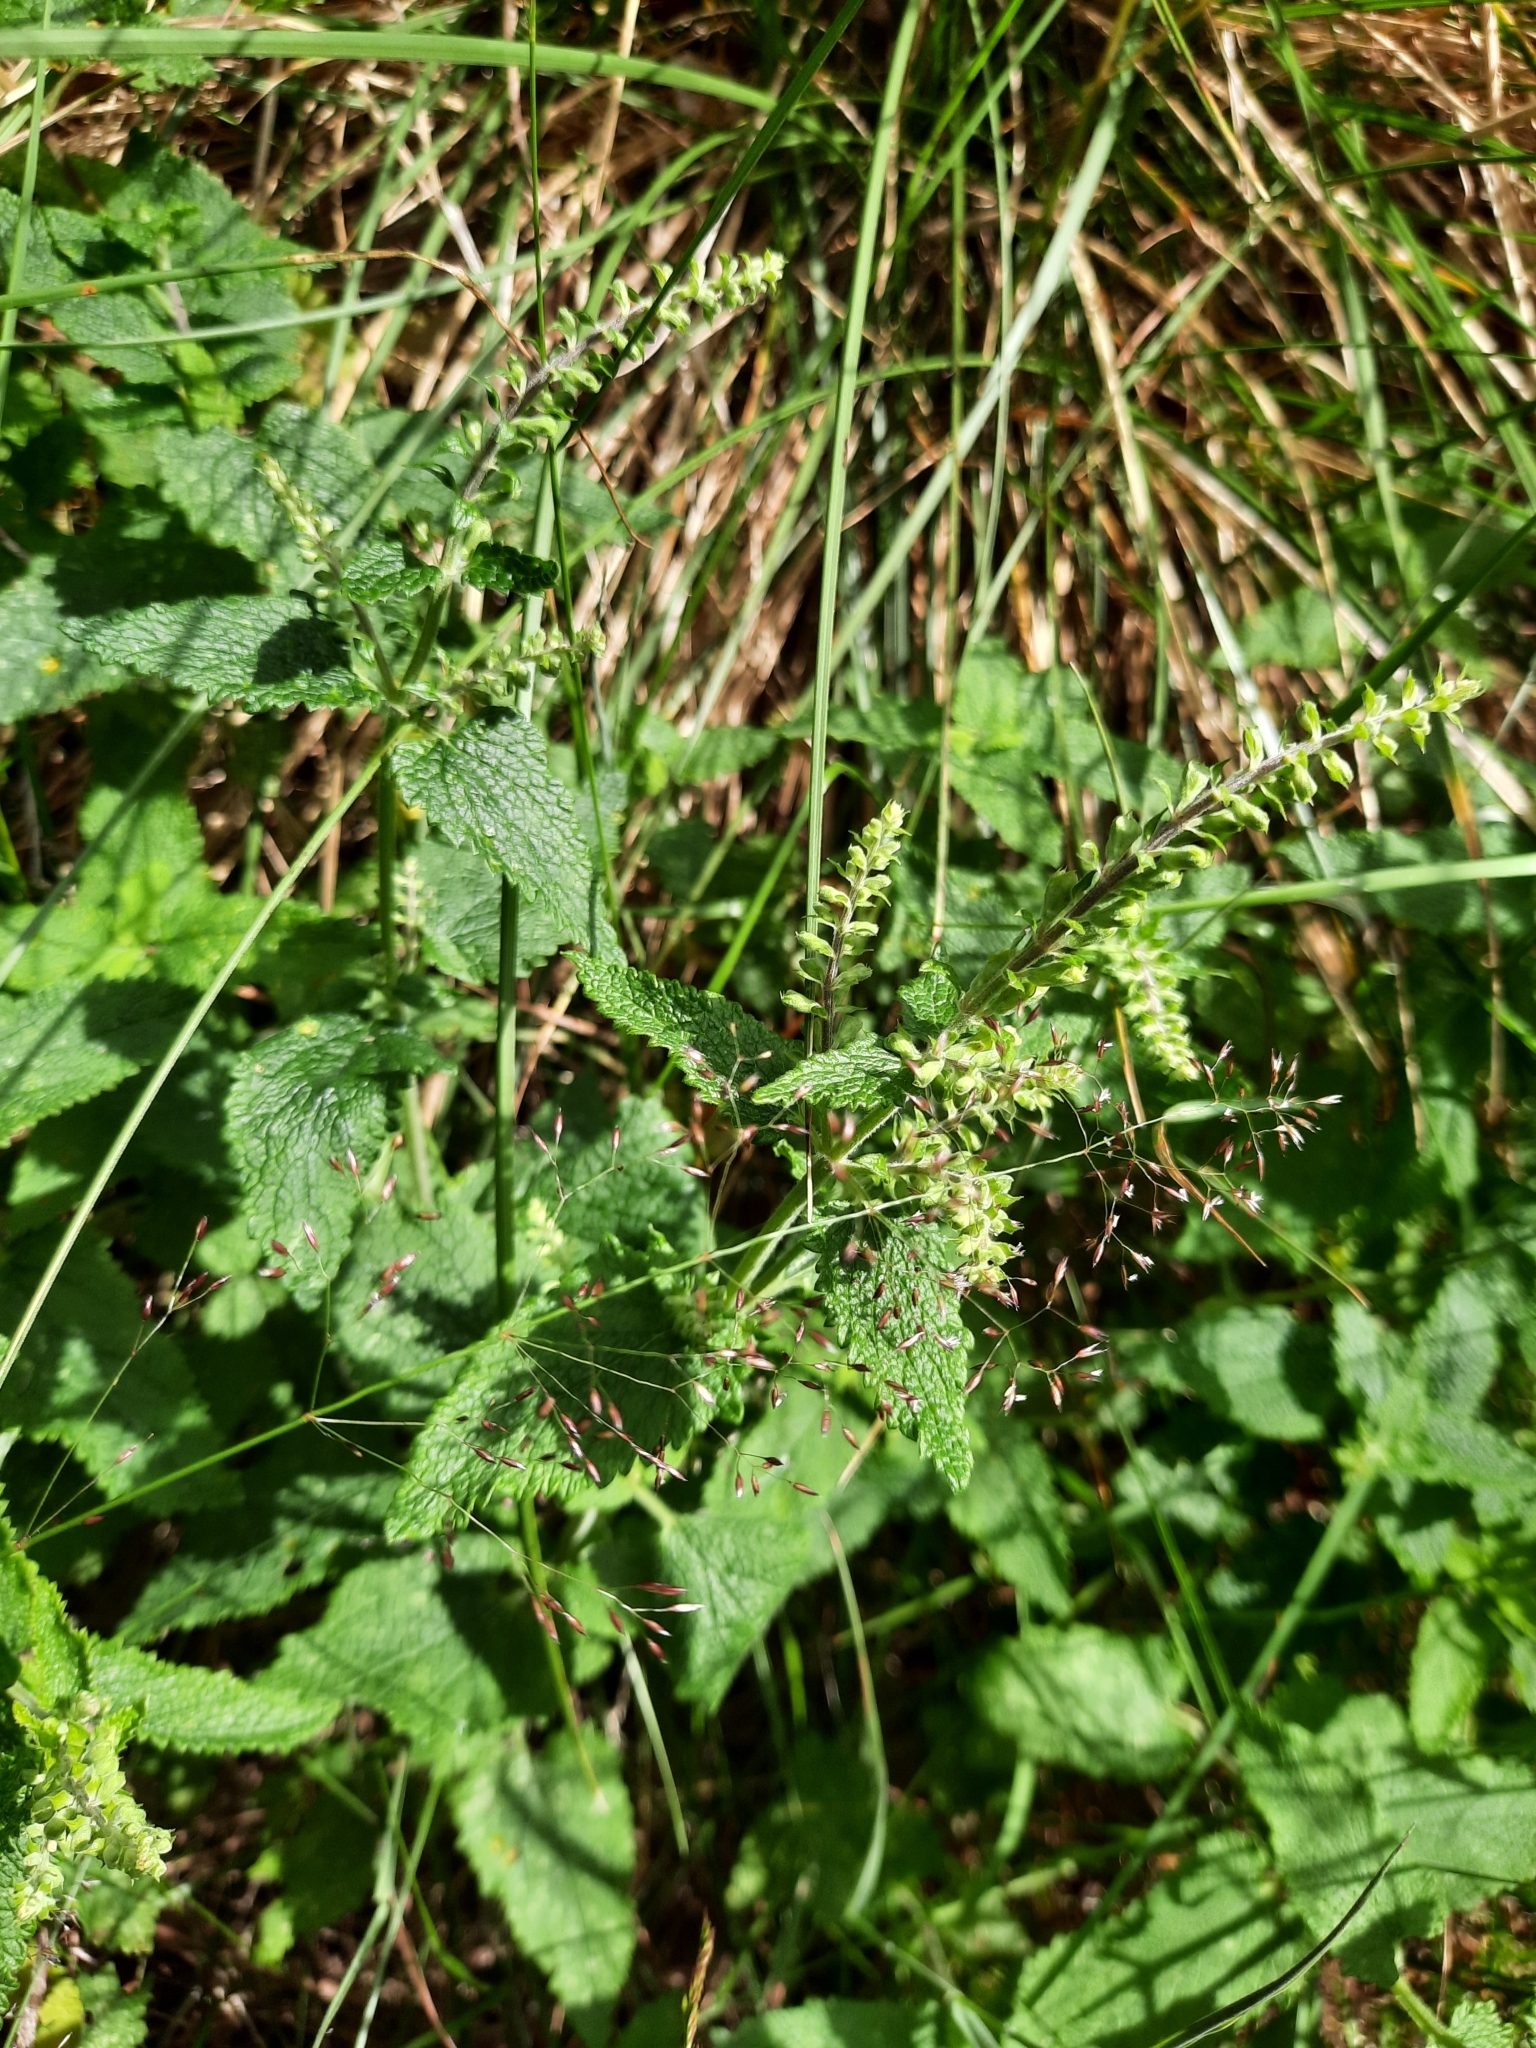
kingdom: Plantae
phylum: Tracheophyta
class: Magnoliopsida
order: Lamiales
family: Lamiaceae
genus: Teucrium
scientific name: Teucrium scorodonia
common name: Woodland germander
